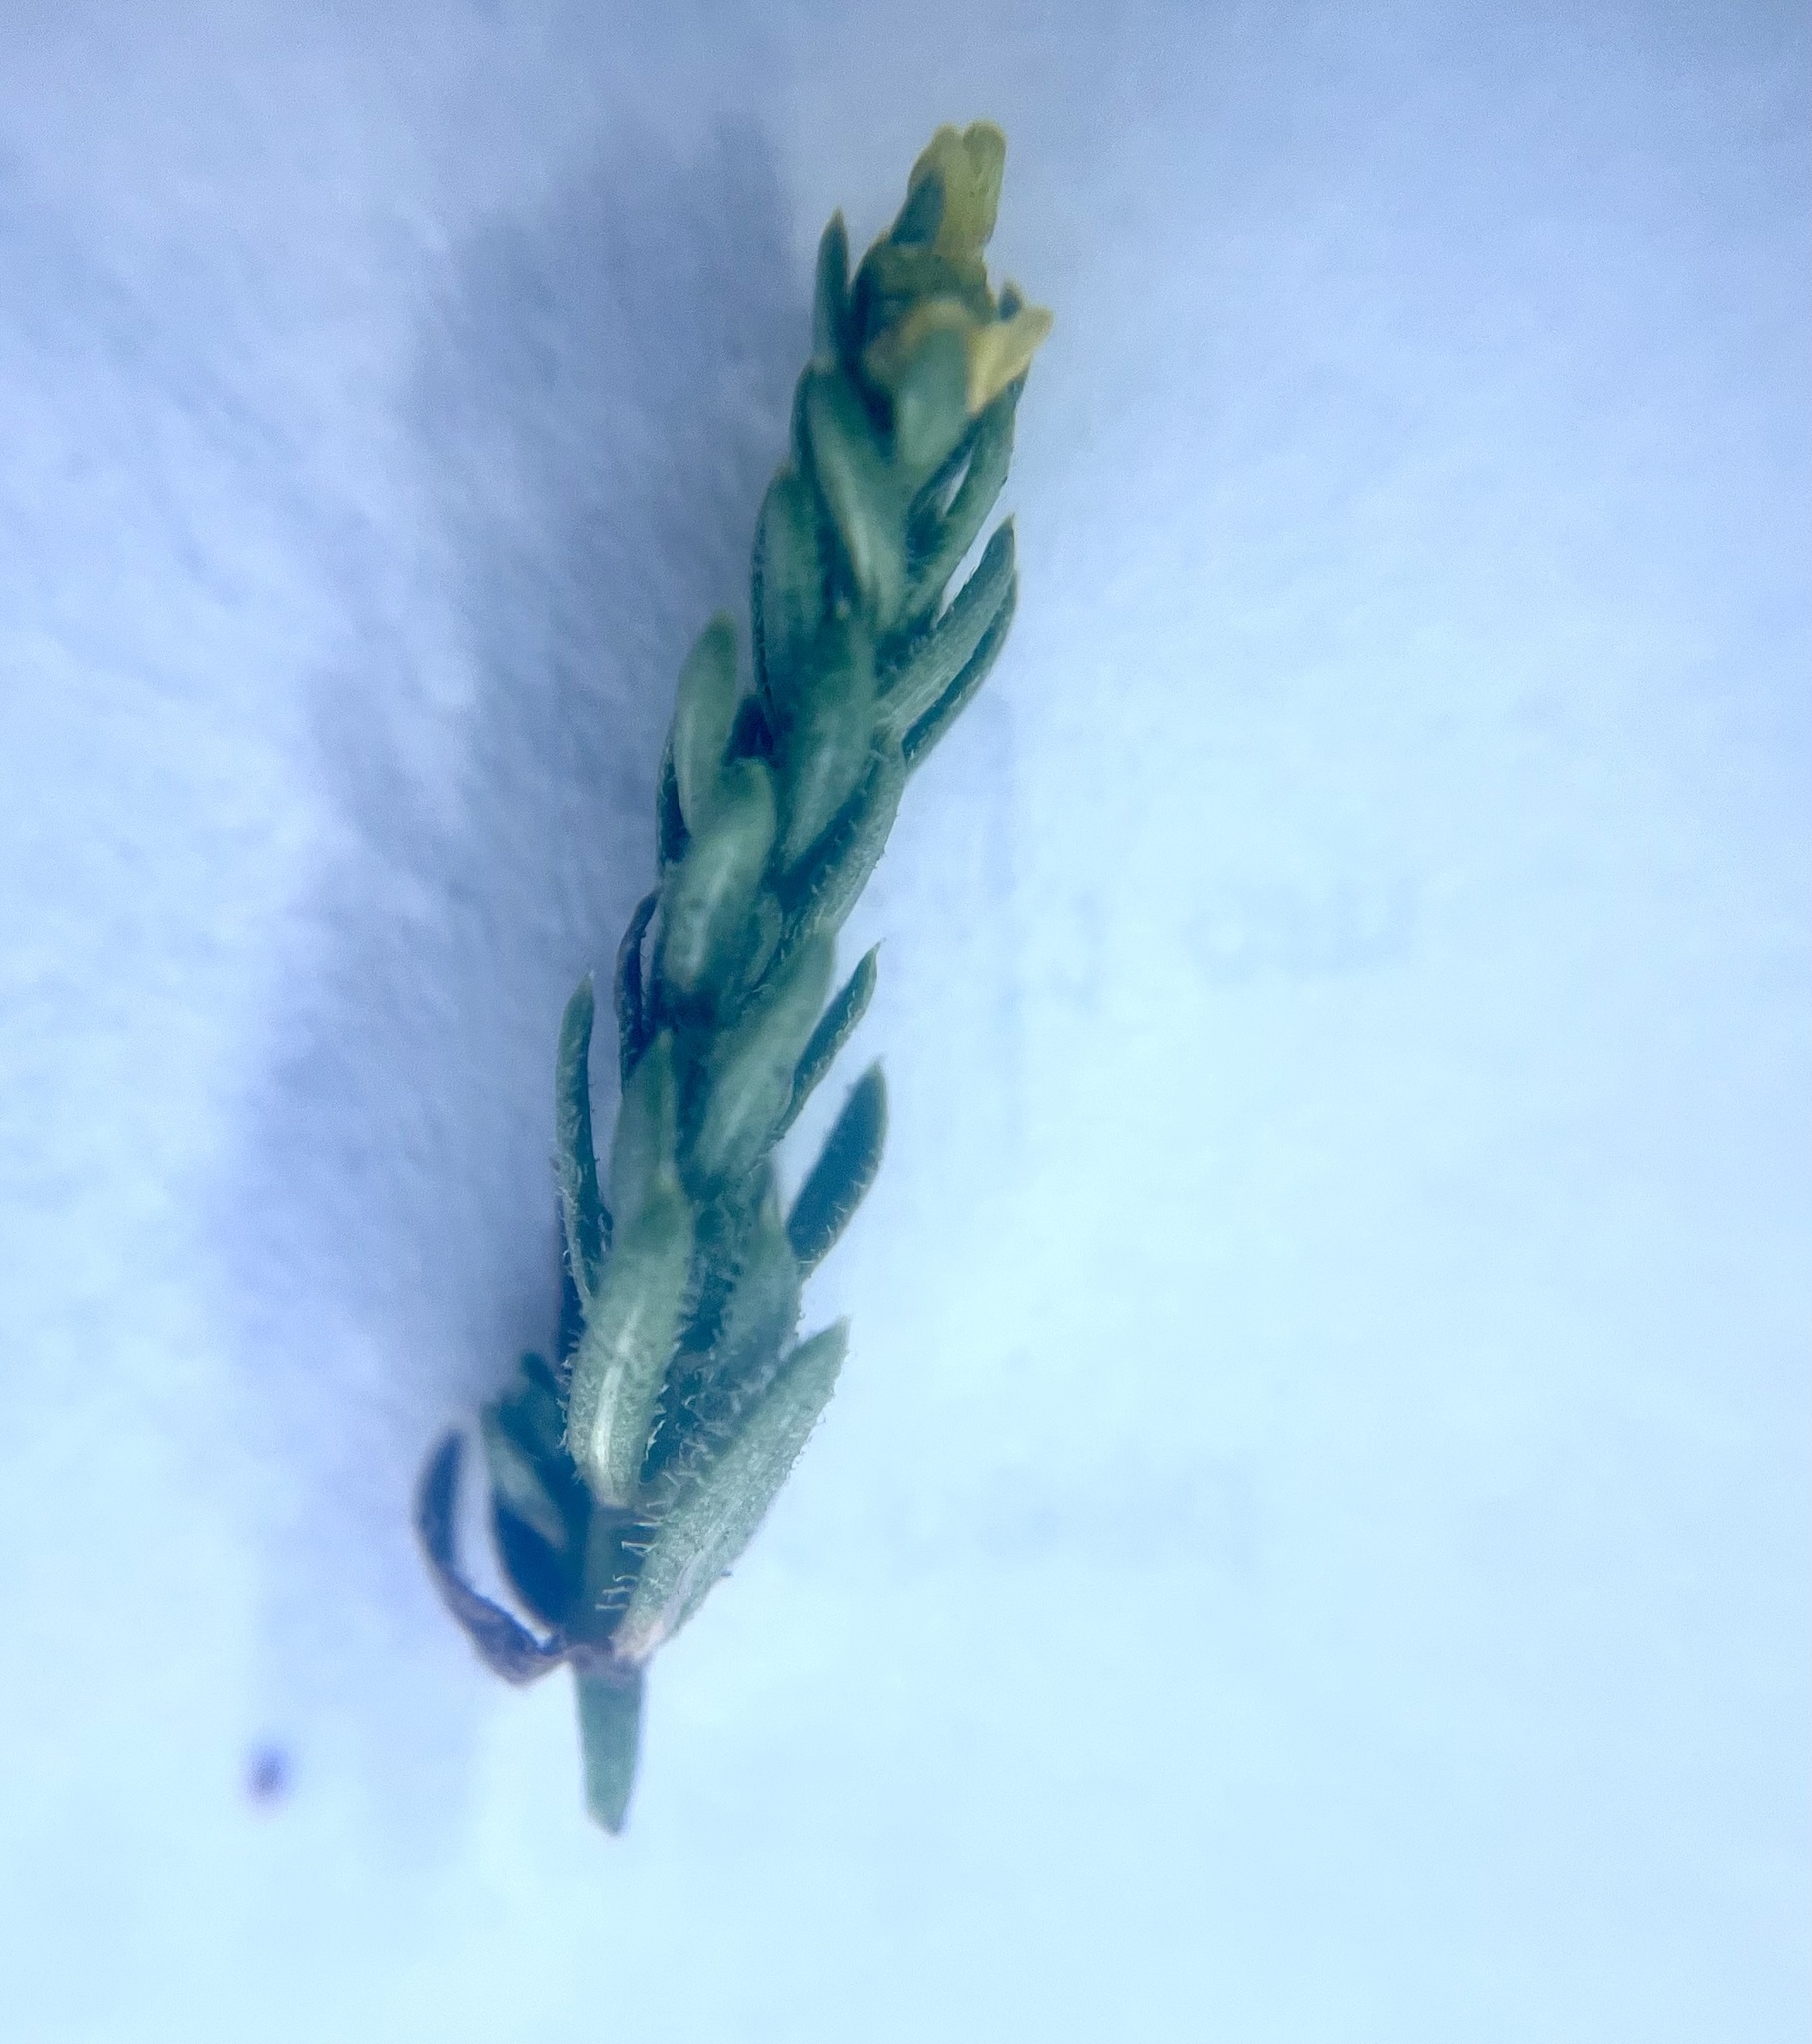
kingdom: Plantae
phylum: Tracheophyta
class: Magnoliopsida
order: Gentianales
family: Rubiaceae
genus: Galium
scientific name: Galium stebbinsii
